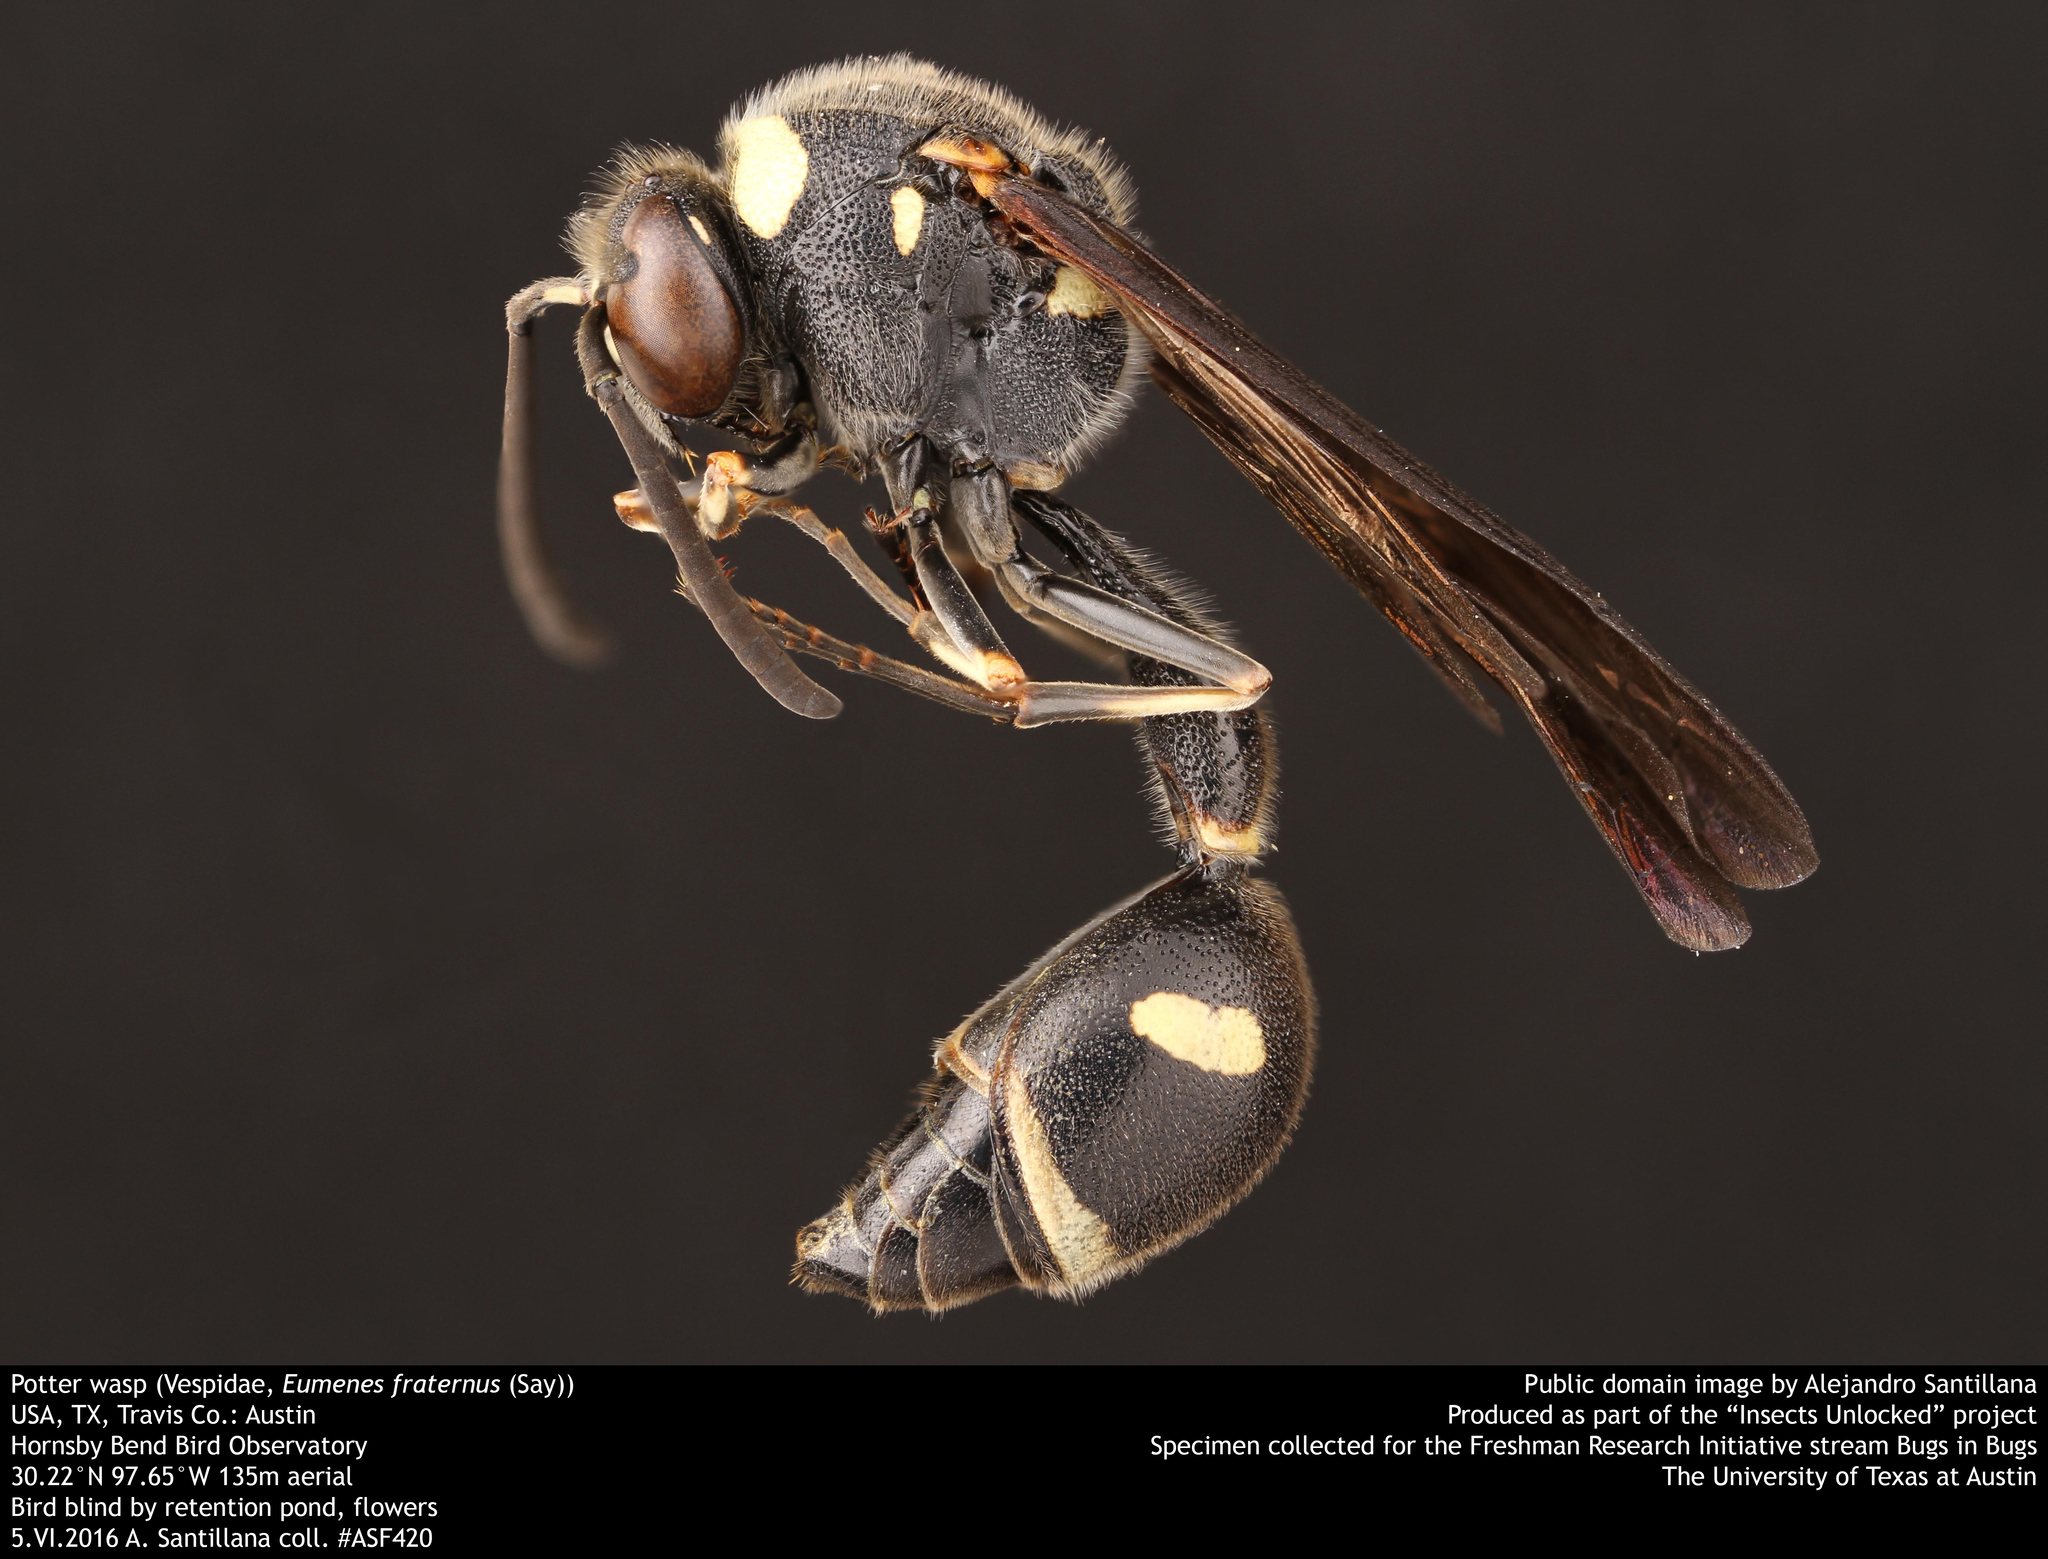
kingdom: Animalia
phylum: Arthropoda
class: Insecta
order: Hymenoptera
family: Vespidae
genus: Eumenes
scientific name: Eumenes fraternus
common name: Fraternal potter wasp
